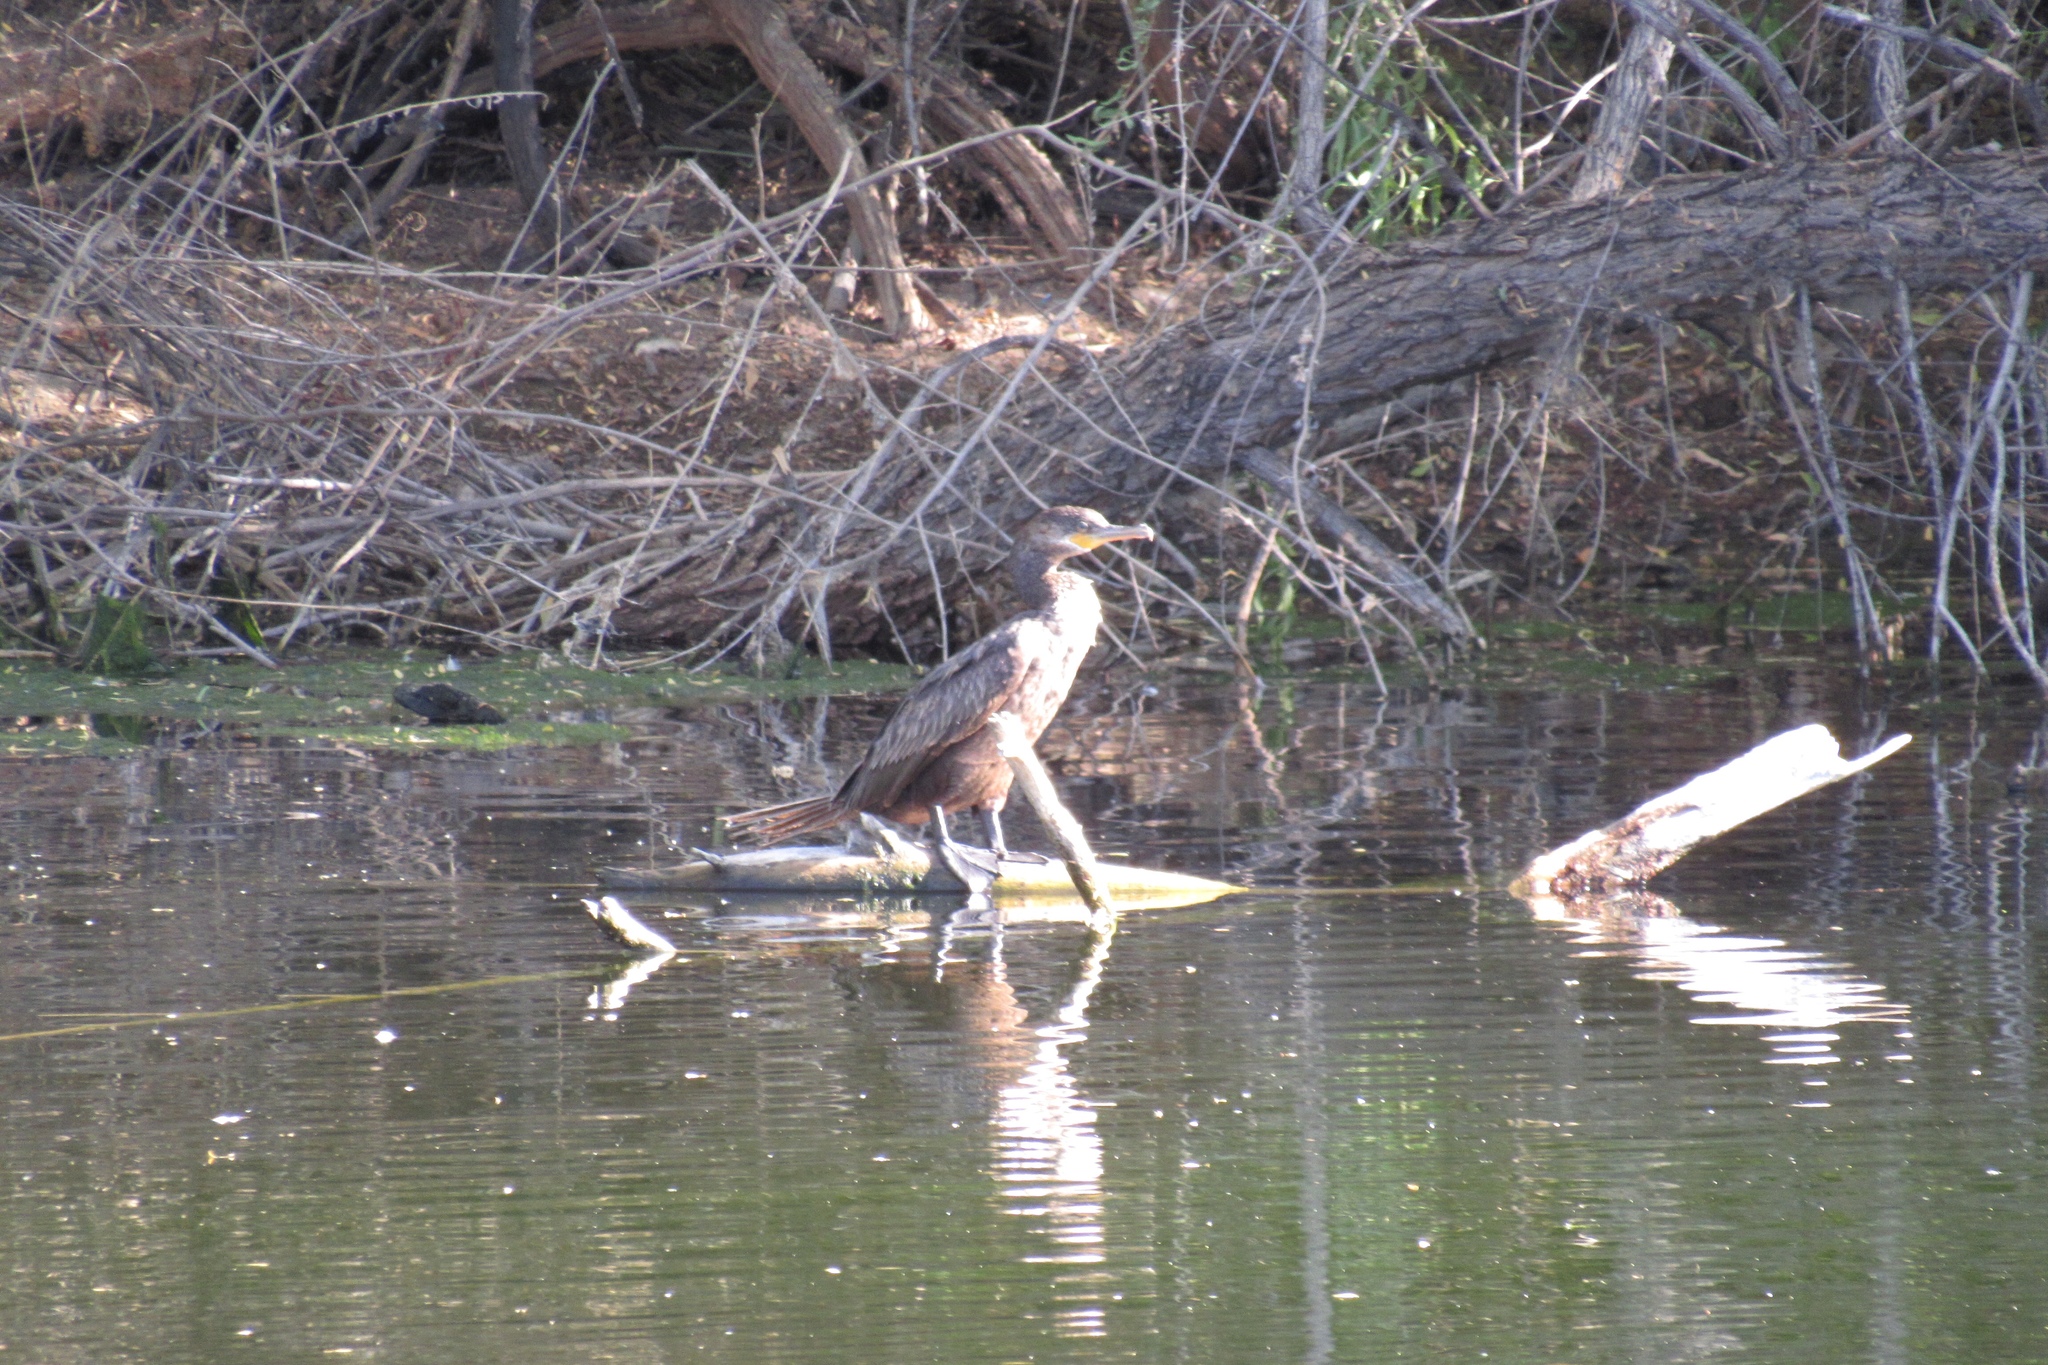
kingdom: Animalia
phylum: Chordata
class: Aves
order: Suliformes
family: Phalacrocoracidae
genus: Phalacrocorax
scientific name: Phalacrocorax brasilianus
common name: Neotropic cormorant
